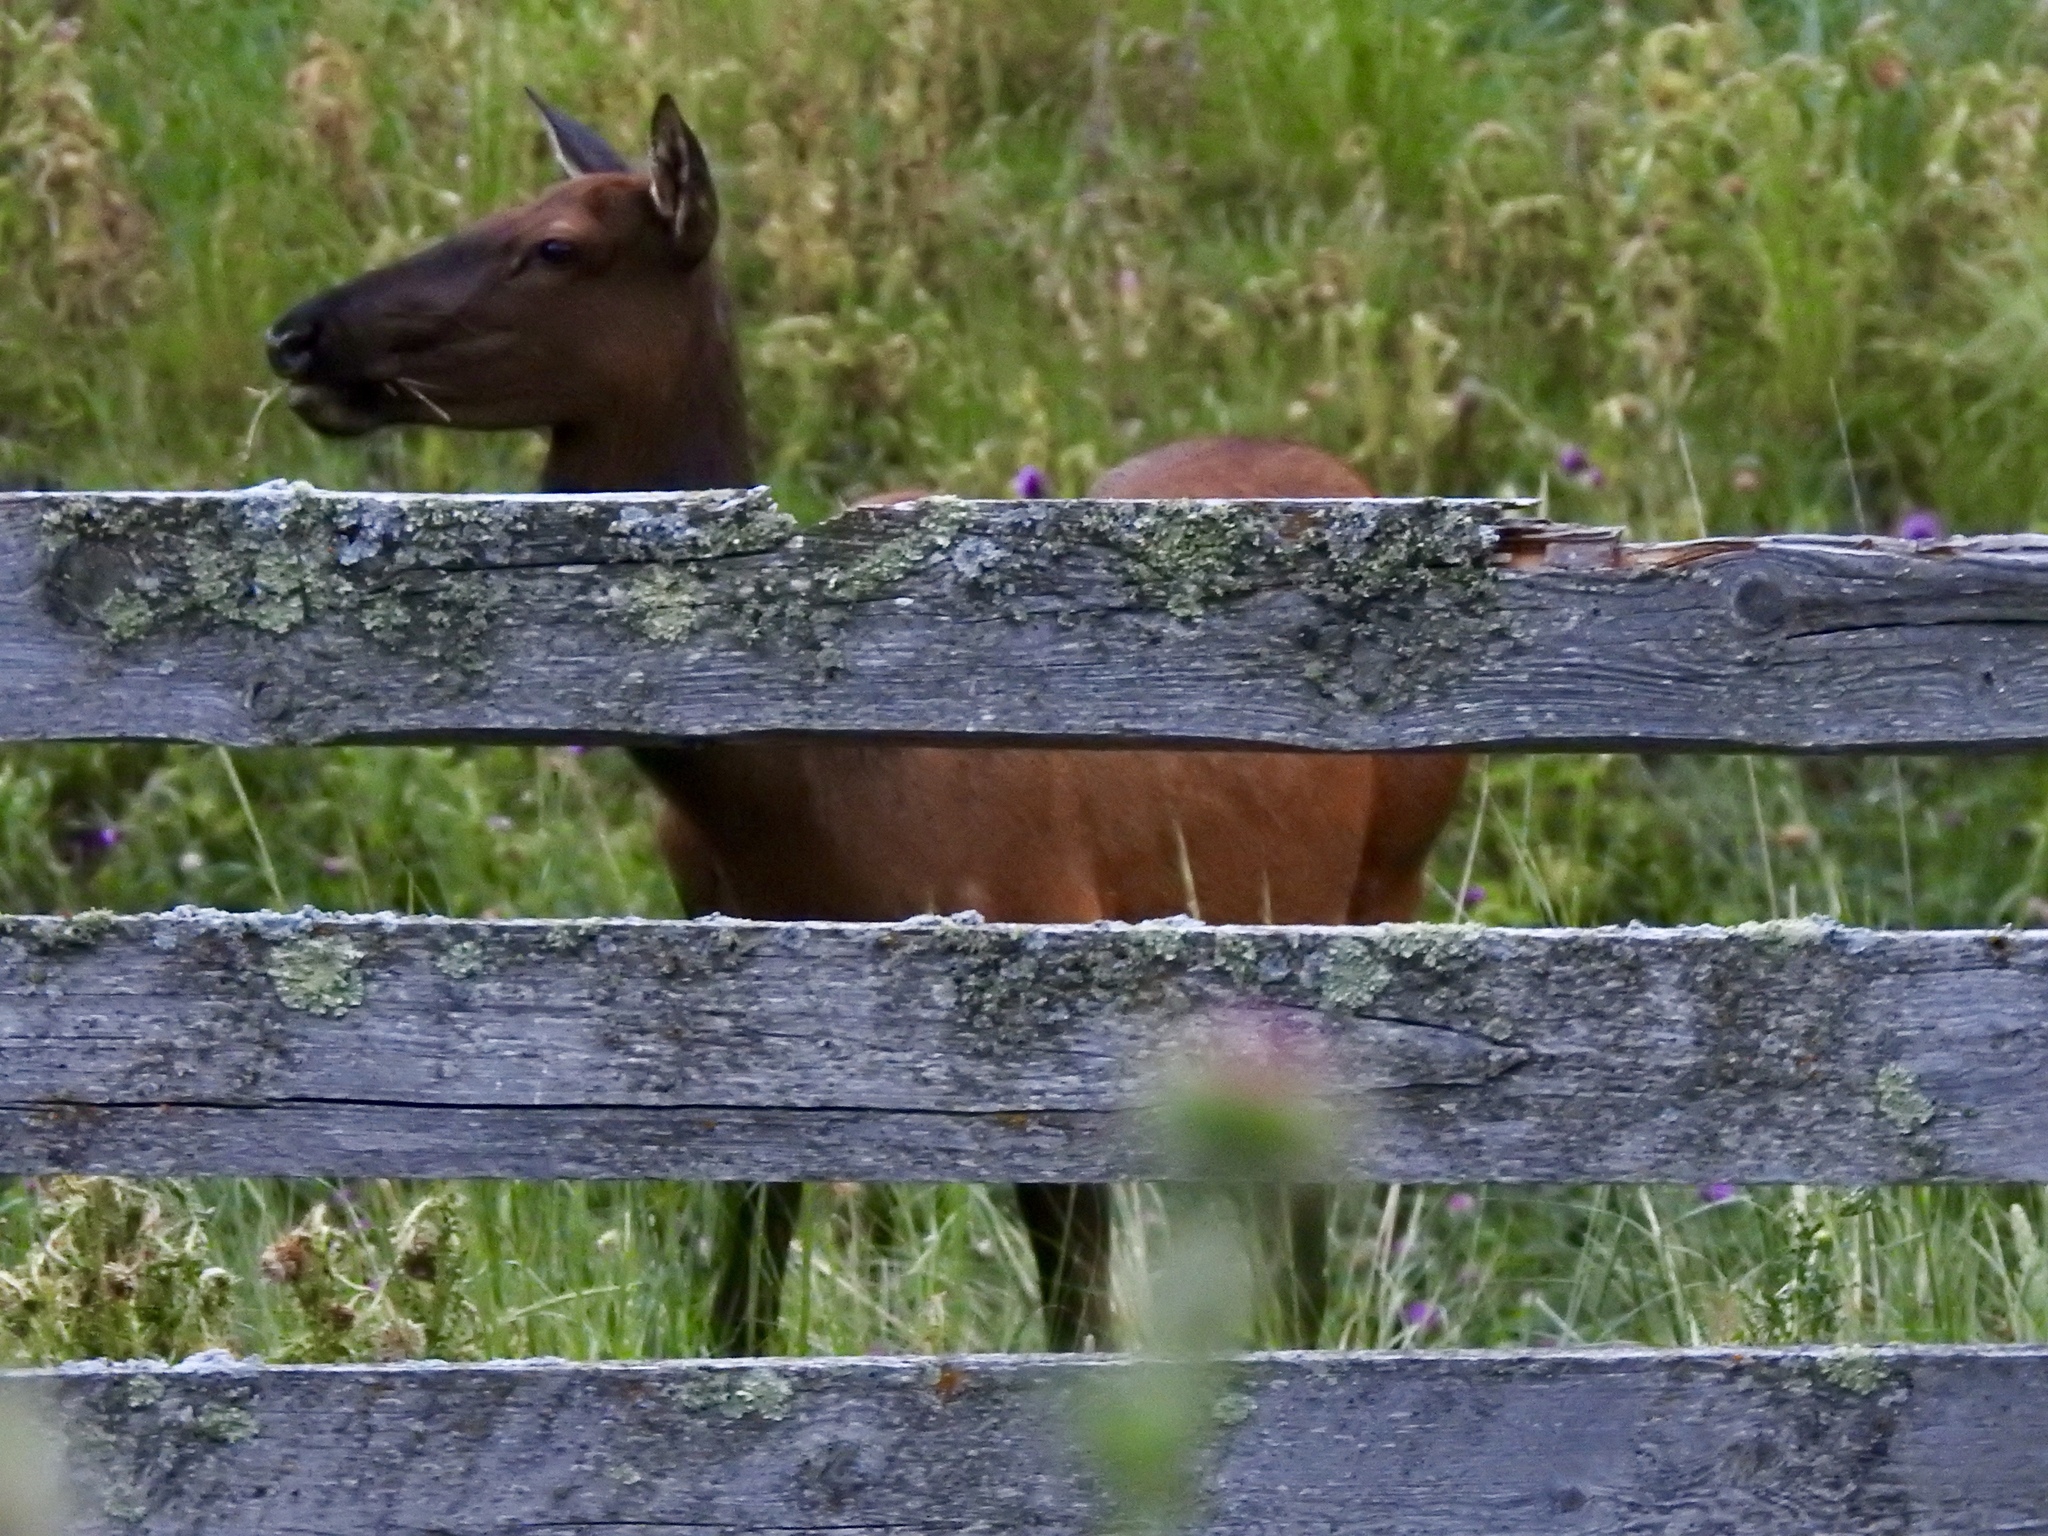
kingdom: Animalia
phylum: Chordata
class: Mammalia
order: Artiodactyla
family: Cervidae
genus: Cervus
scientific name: Cervus elaphus
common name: Red deer
